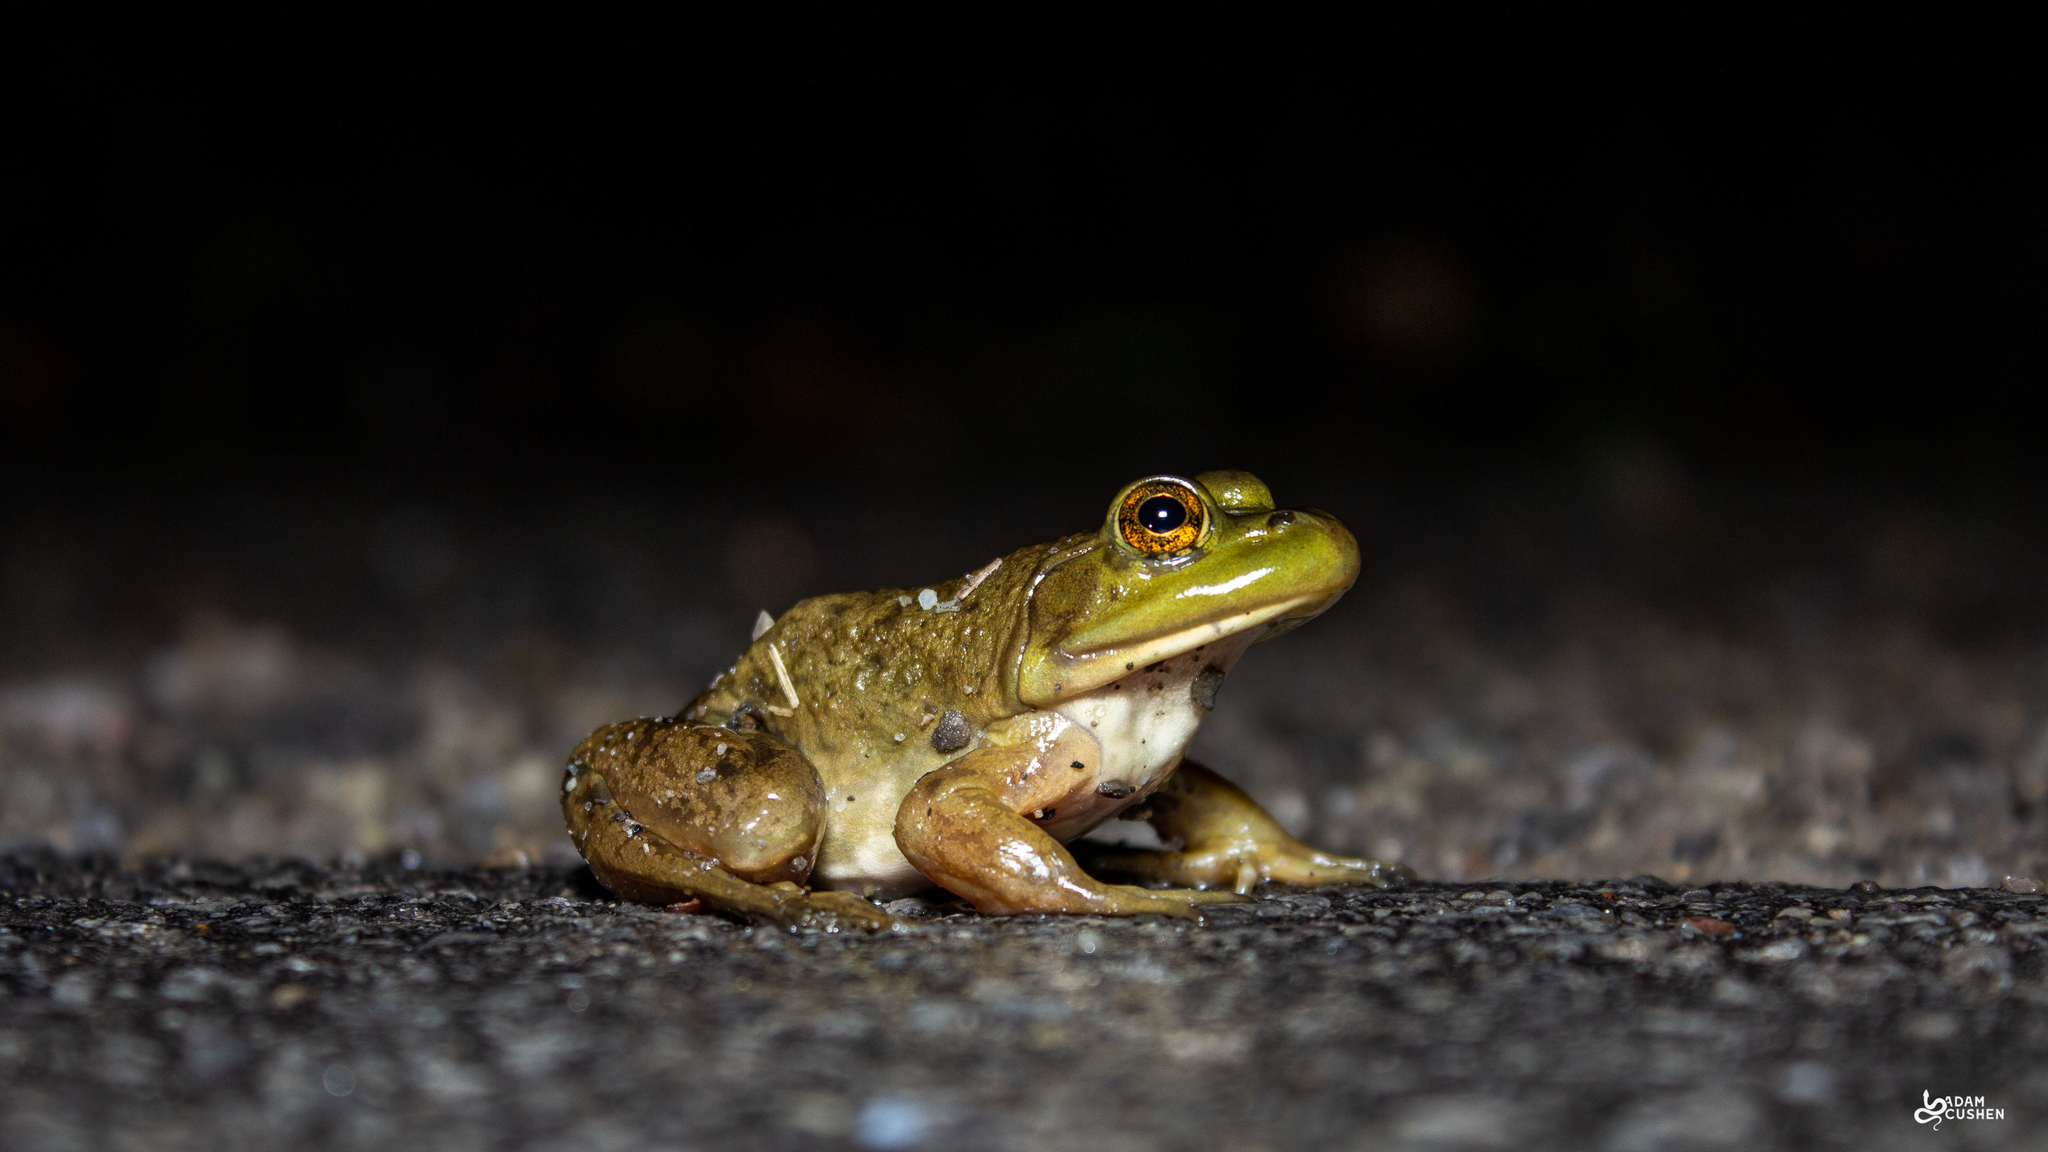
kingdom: Animalia
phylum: Chordata
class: Amphibia
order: Anura
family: Ranidae
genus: Lithobates
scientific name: Lithobates catesbeianus
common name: American bullfrog
